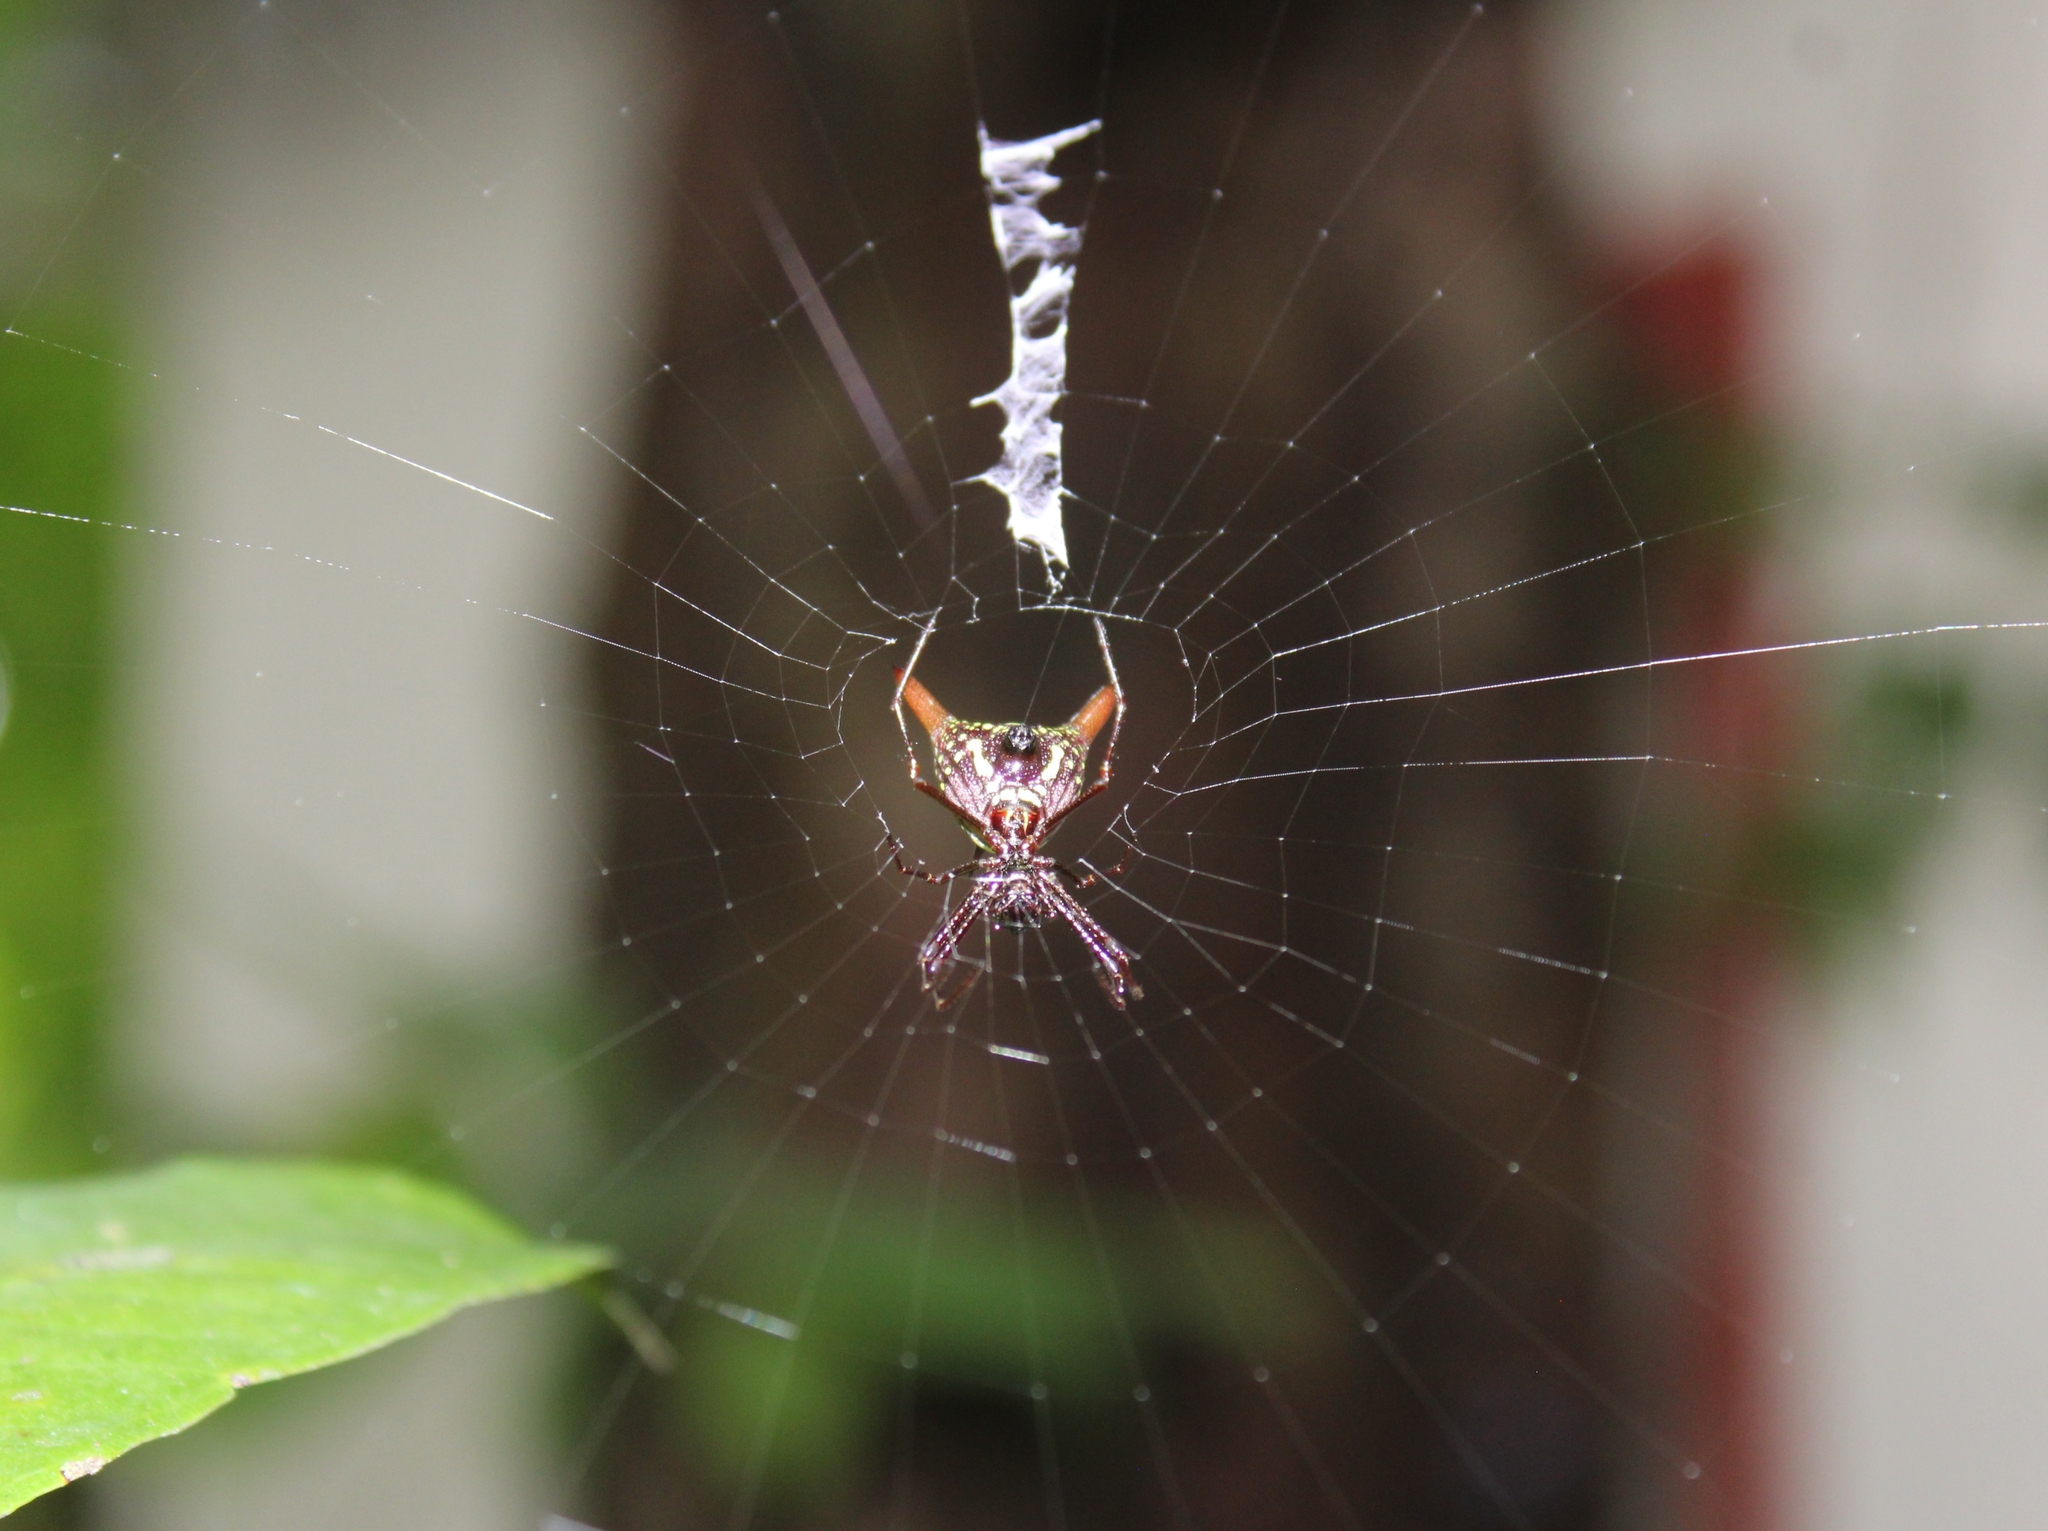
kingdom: Animalia
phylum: Arthropoda
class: Arachnida
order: Araneae
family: Araneidae
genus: Micrathena
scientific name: Micrathena sexspinosa
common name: Orb weavers
